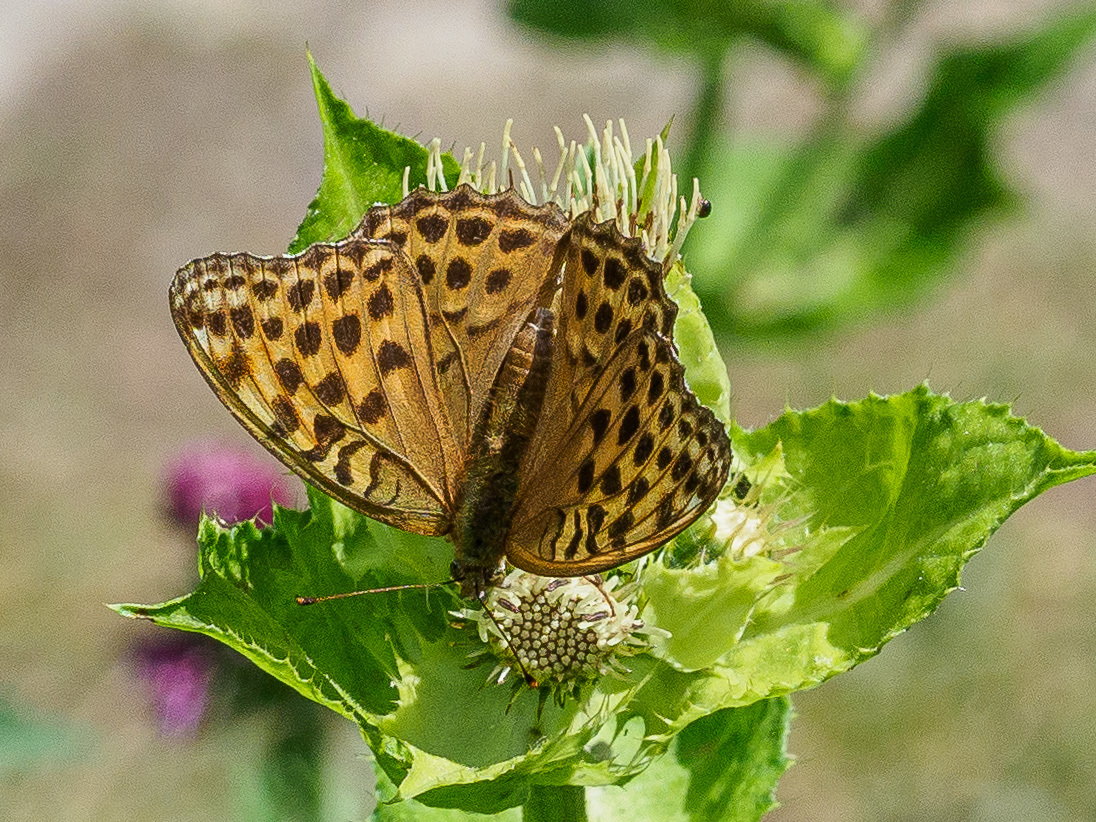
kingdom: Animalia
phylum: Arthropoda
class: Insecta
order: Lepidoptera
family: Nymphalidae
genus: Argynnis
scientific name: Argynnis paphia
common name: Silver-washed fritillary
